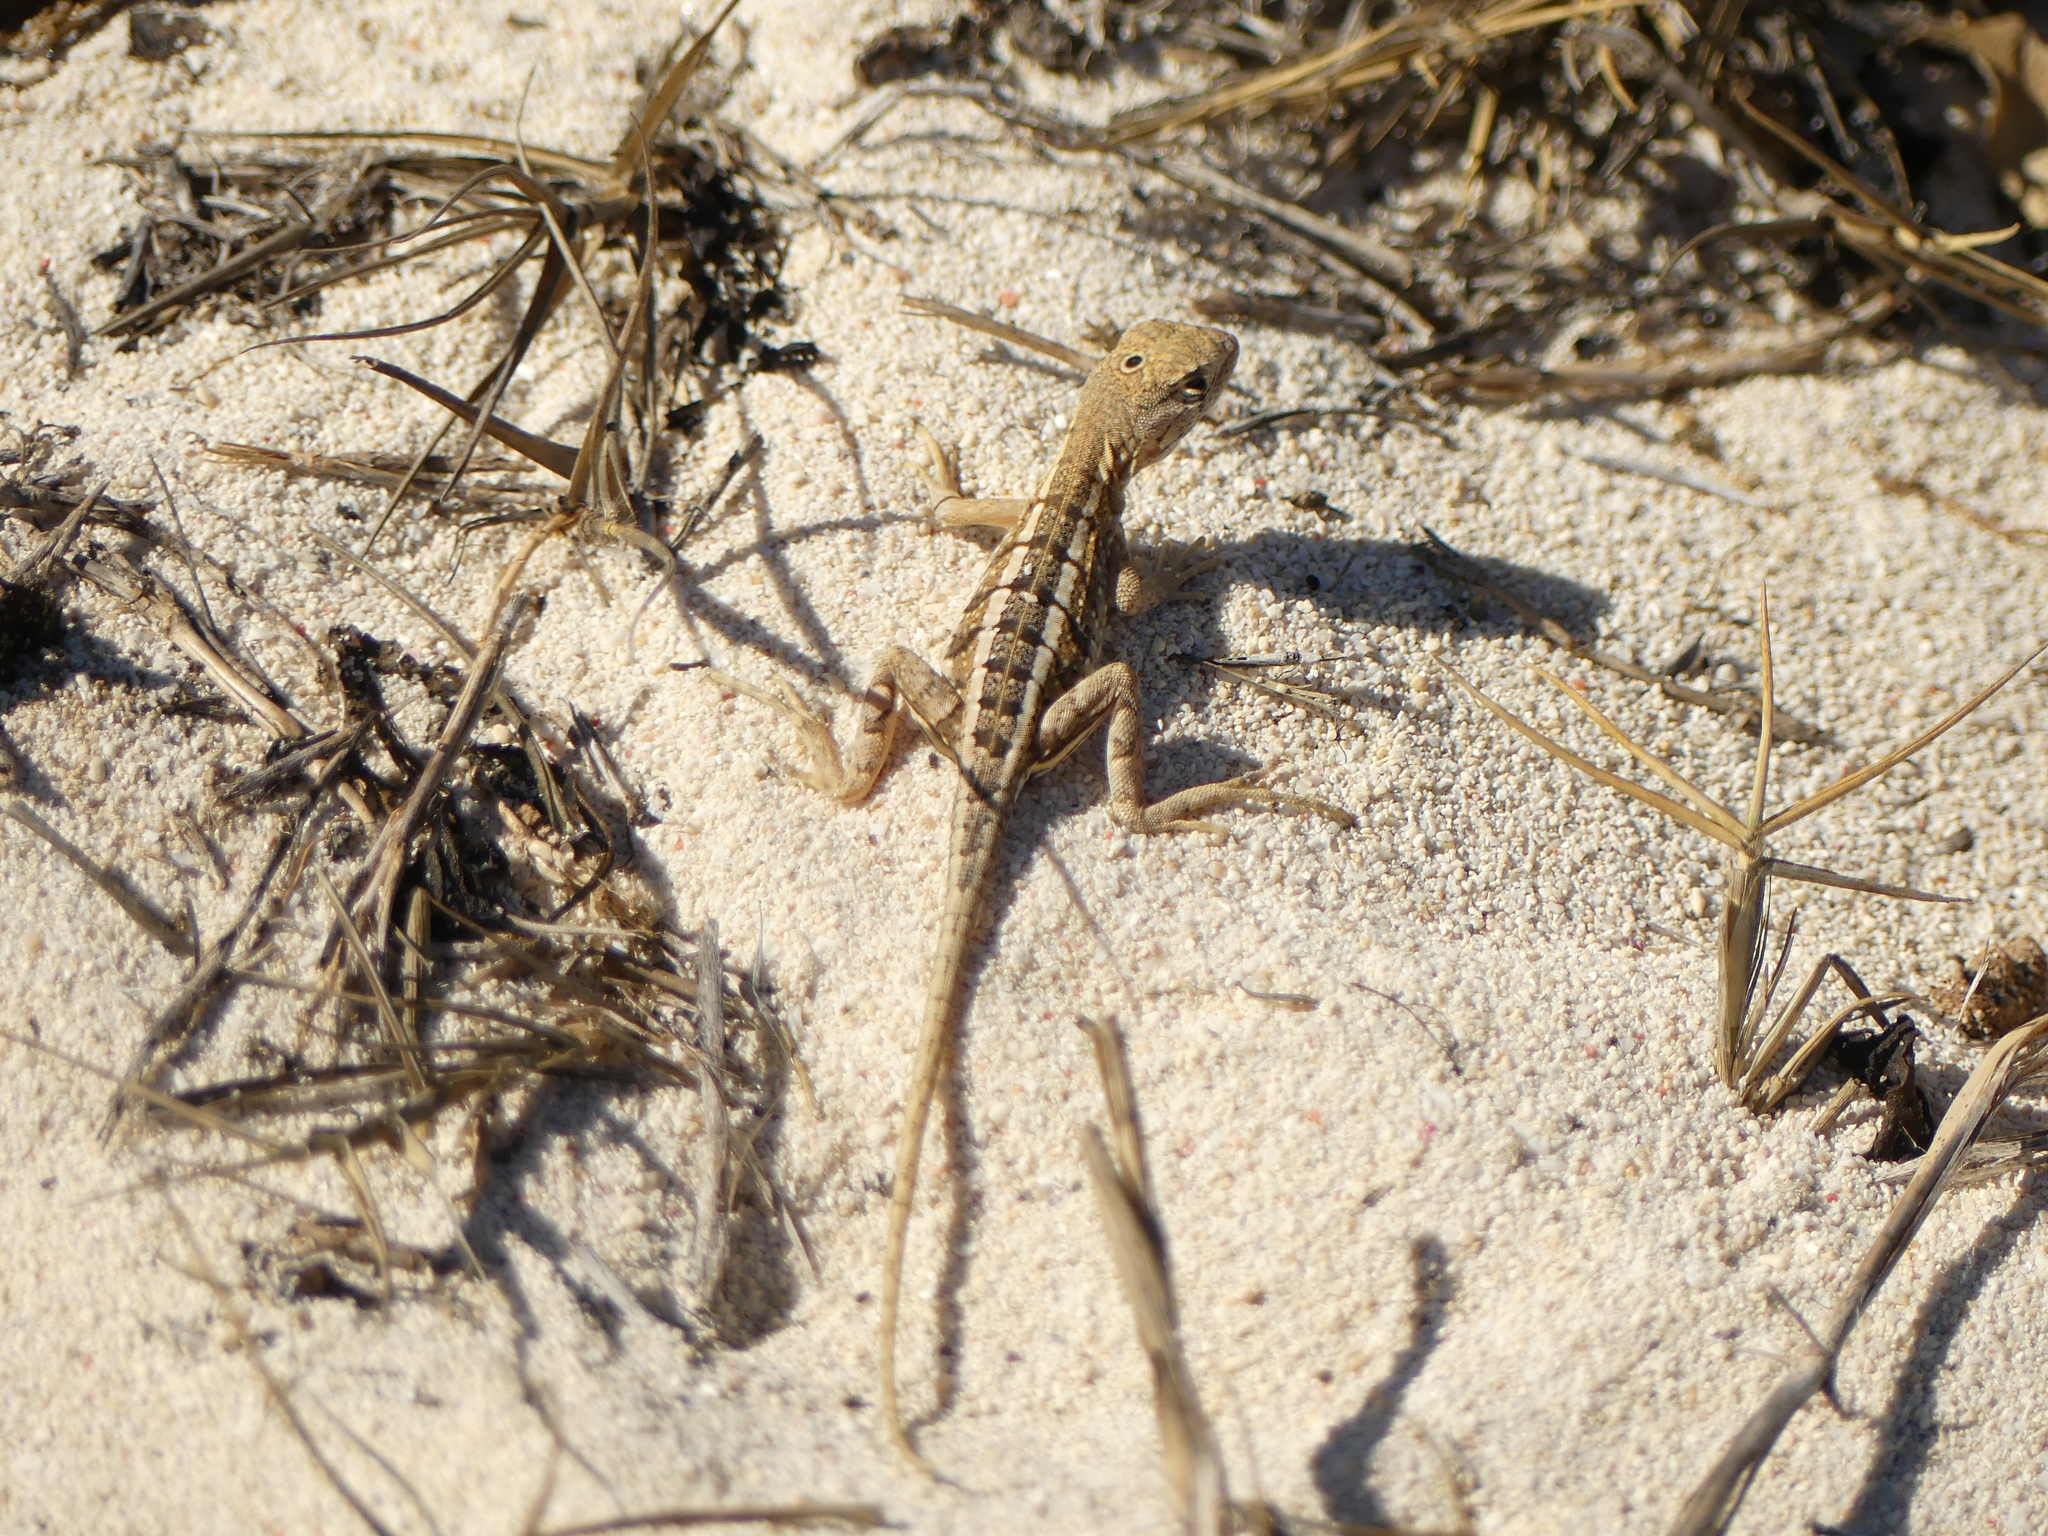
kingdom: Animalia
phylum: Chordata
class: Squamata
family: Opluridae
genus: Chalarodon
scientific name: Chalarodon madagascariensis
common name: Madagascar iguana
